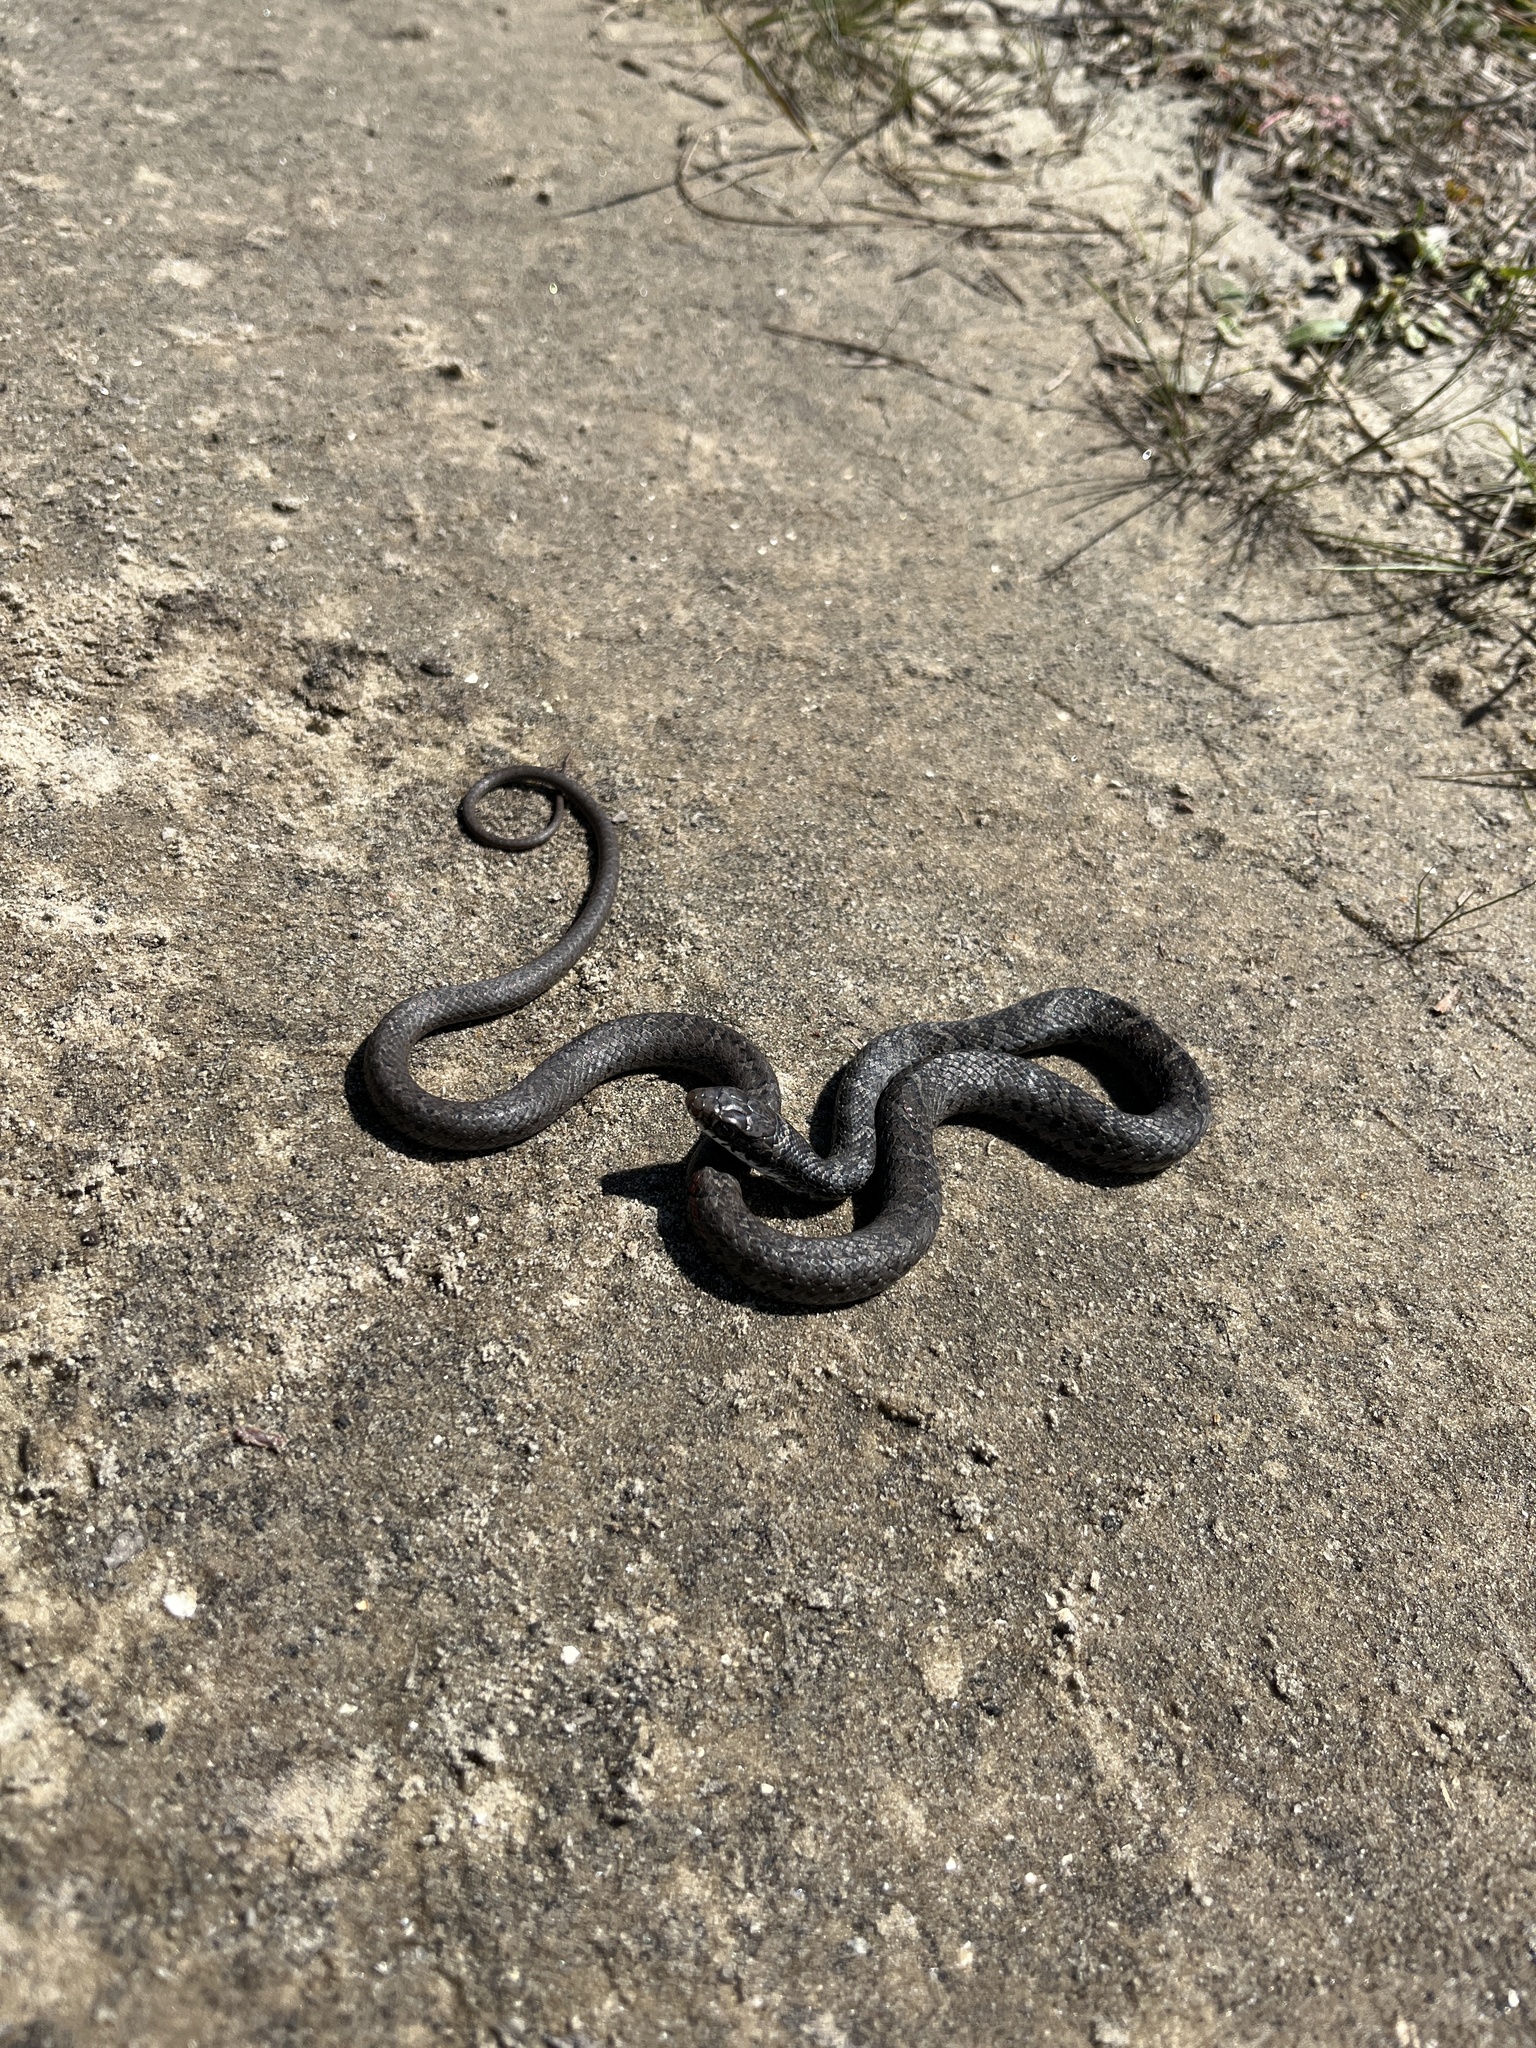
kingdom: Animalia
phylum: Chordata
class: Squamata
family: Colubridae
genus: Coluber
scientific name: Coluber constrictor
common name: Eastern racer
